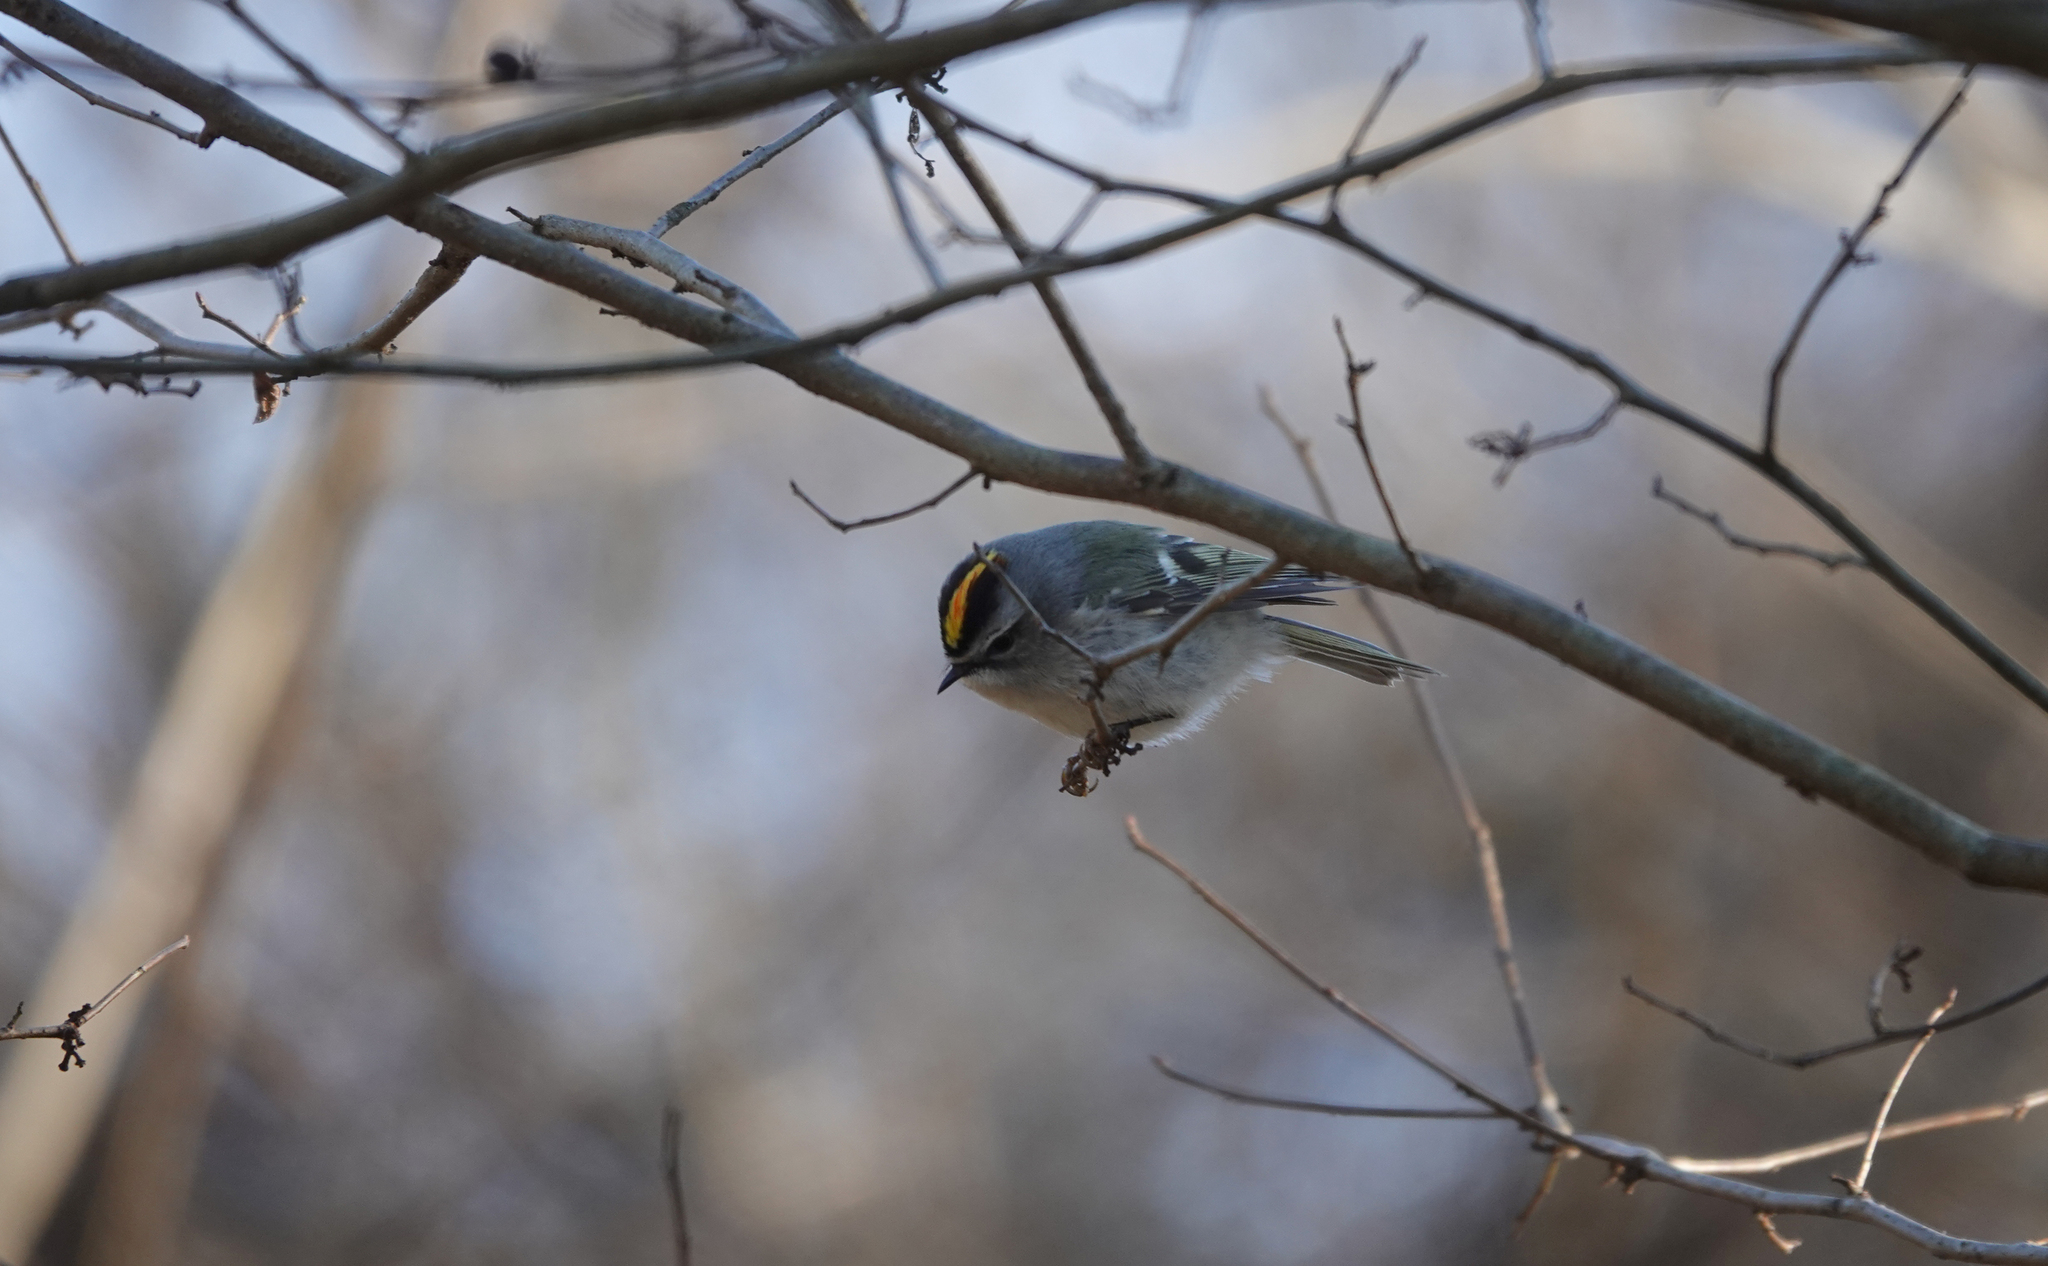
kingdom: Animalia
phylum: Chordata
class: Aves
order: Passeriformes
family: Regulidae
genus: Regulus
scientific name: Regulus satrapa
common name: Golden-crowned kinglet
